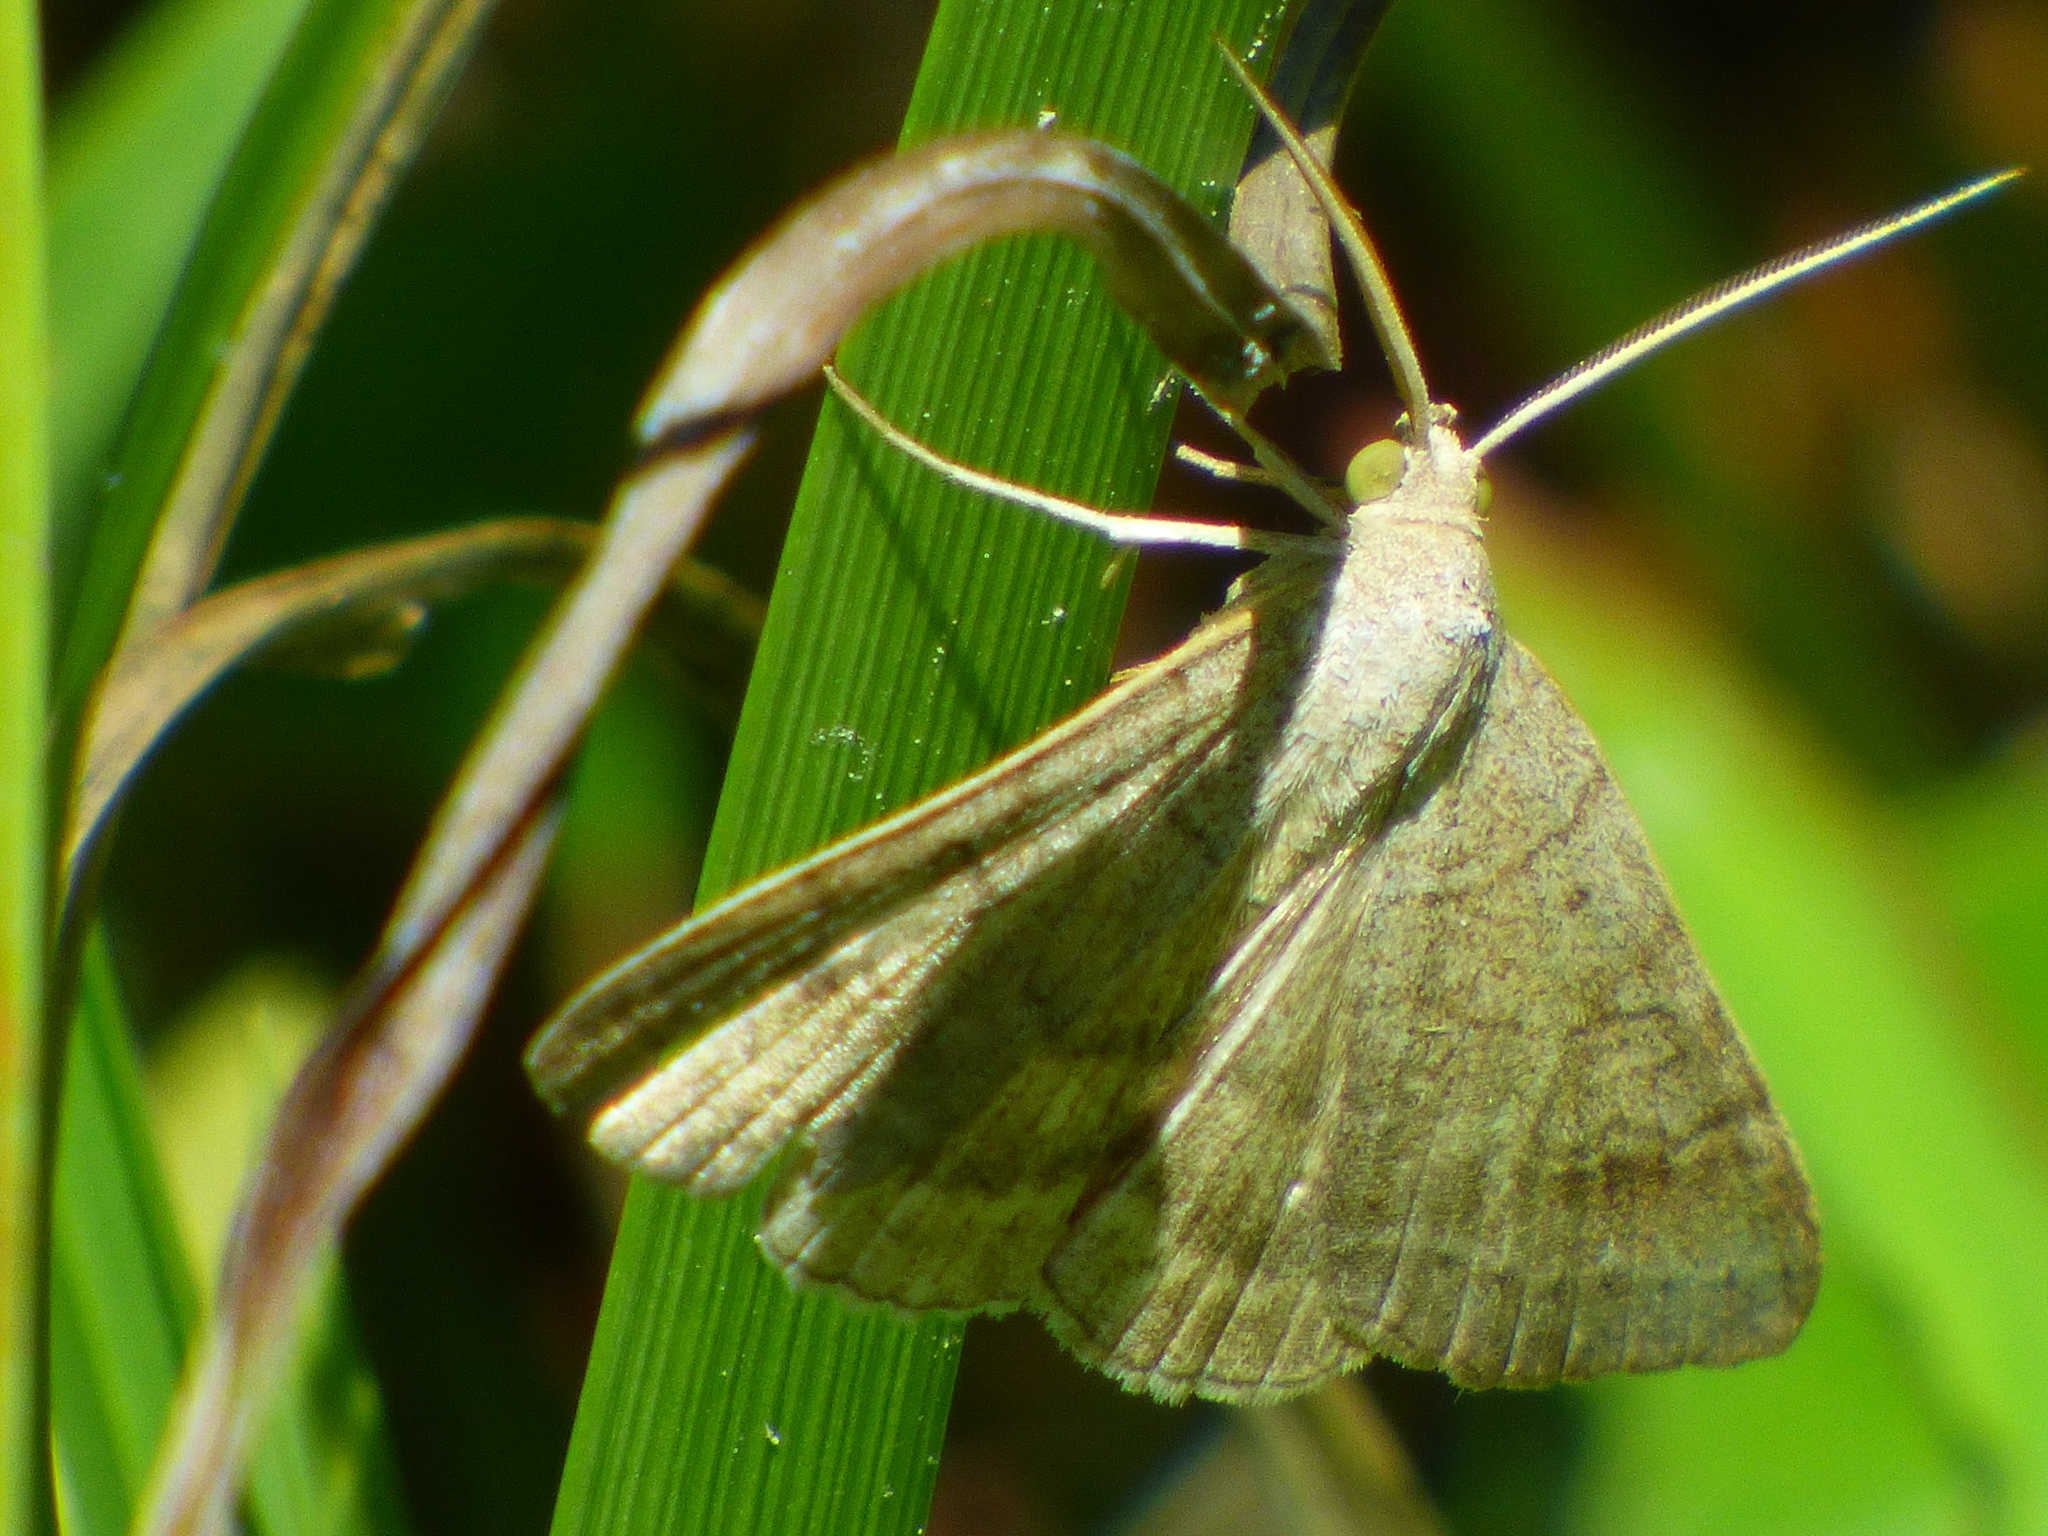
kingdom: Animalia
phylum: Arthropoda
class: Insecta
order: Lepidoptera
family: Erebidae
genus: Caenurgia
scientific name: Caenurgia chloropha
